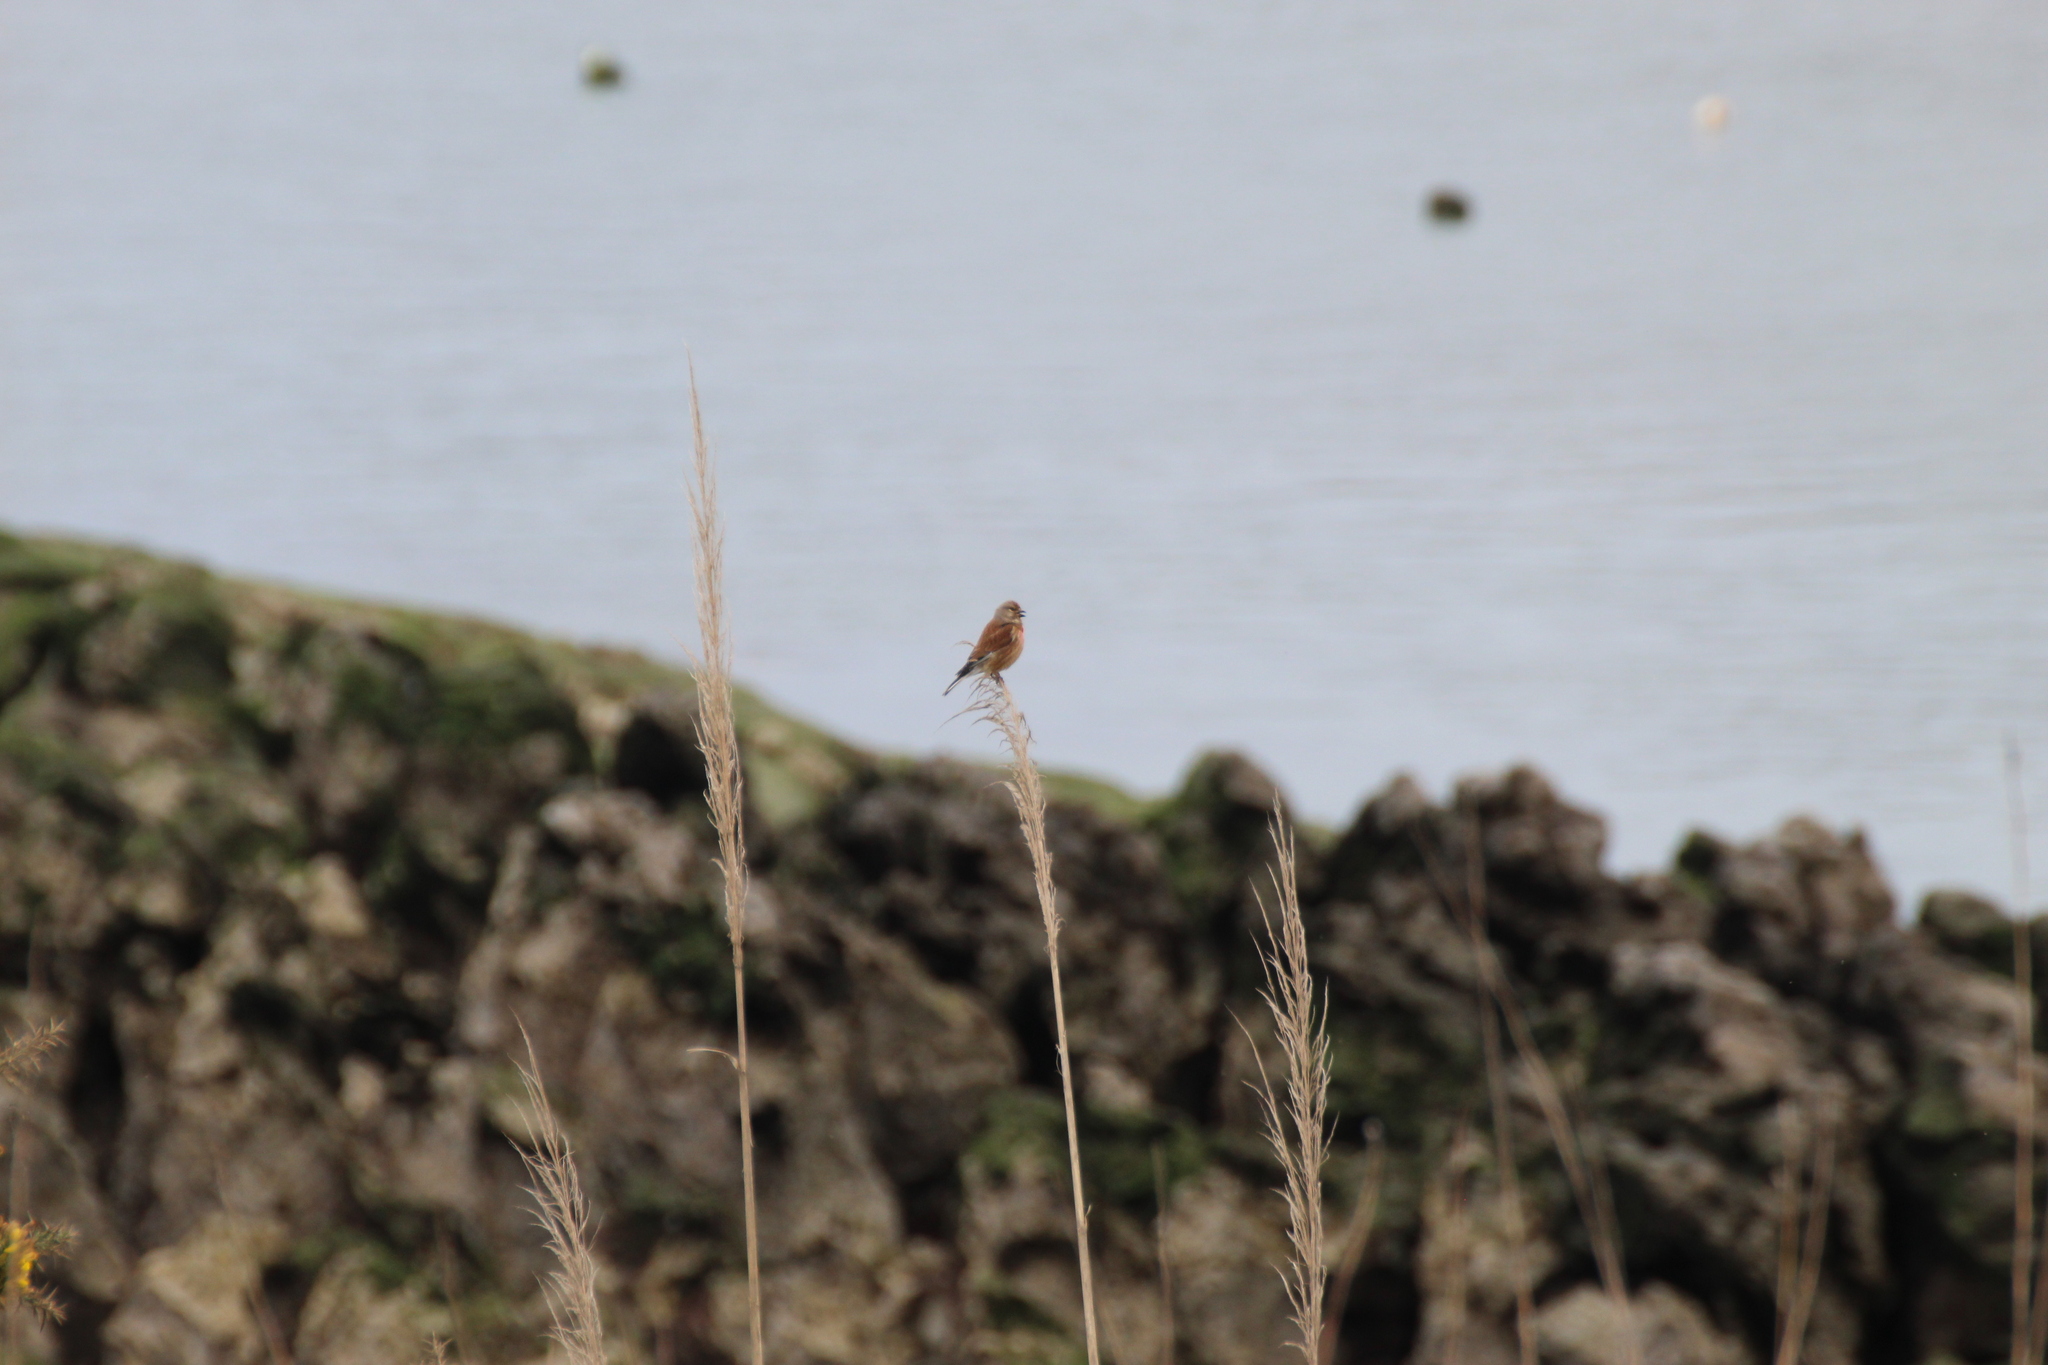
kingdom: Animalia
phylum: Chordata
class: Aves
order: Passeriformes
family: Fringillidae
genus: Linaria
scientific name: Linaria cannabina
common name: Common linnet
